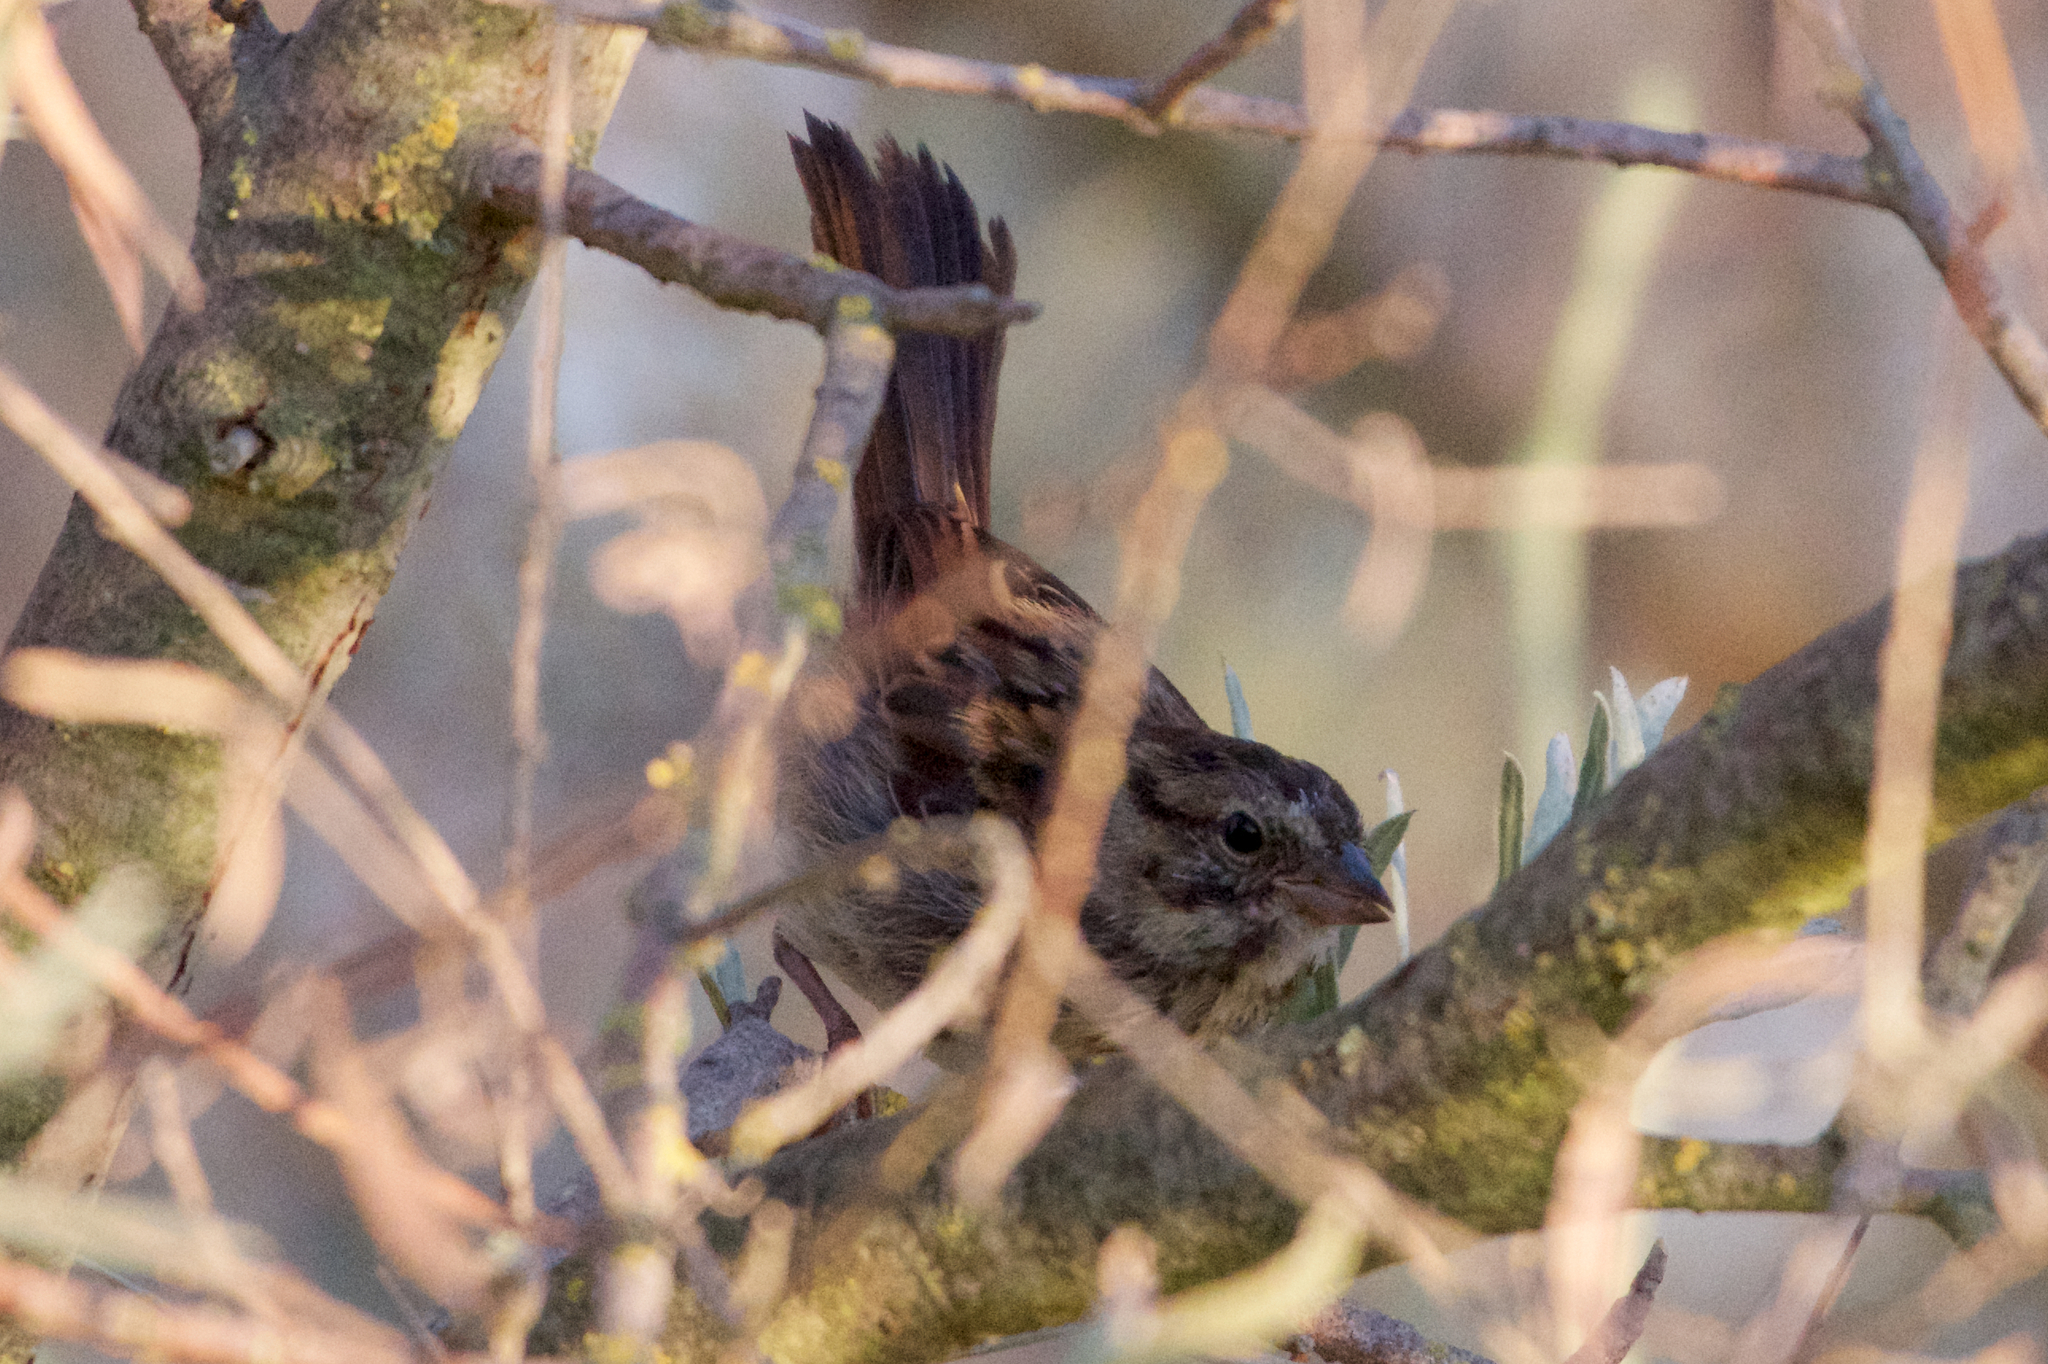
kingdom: Animalia
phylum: Chordata
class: Aves
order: Passeriformes
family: Passerellidae
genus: Melospiza
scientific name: Melospiza melodia
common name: Song sparrow
